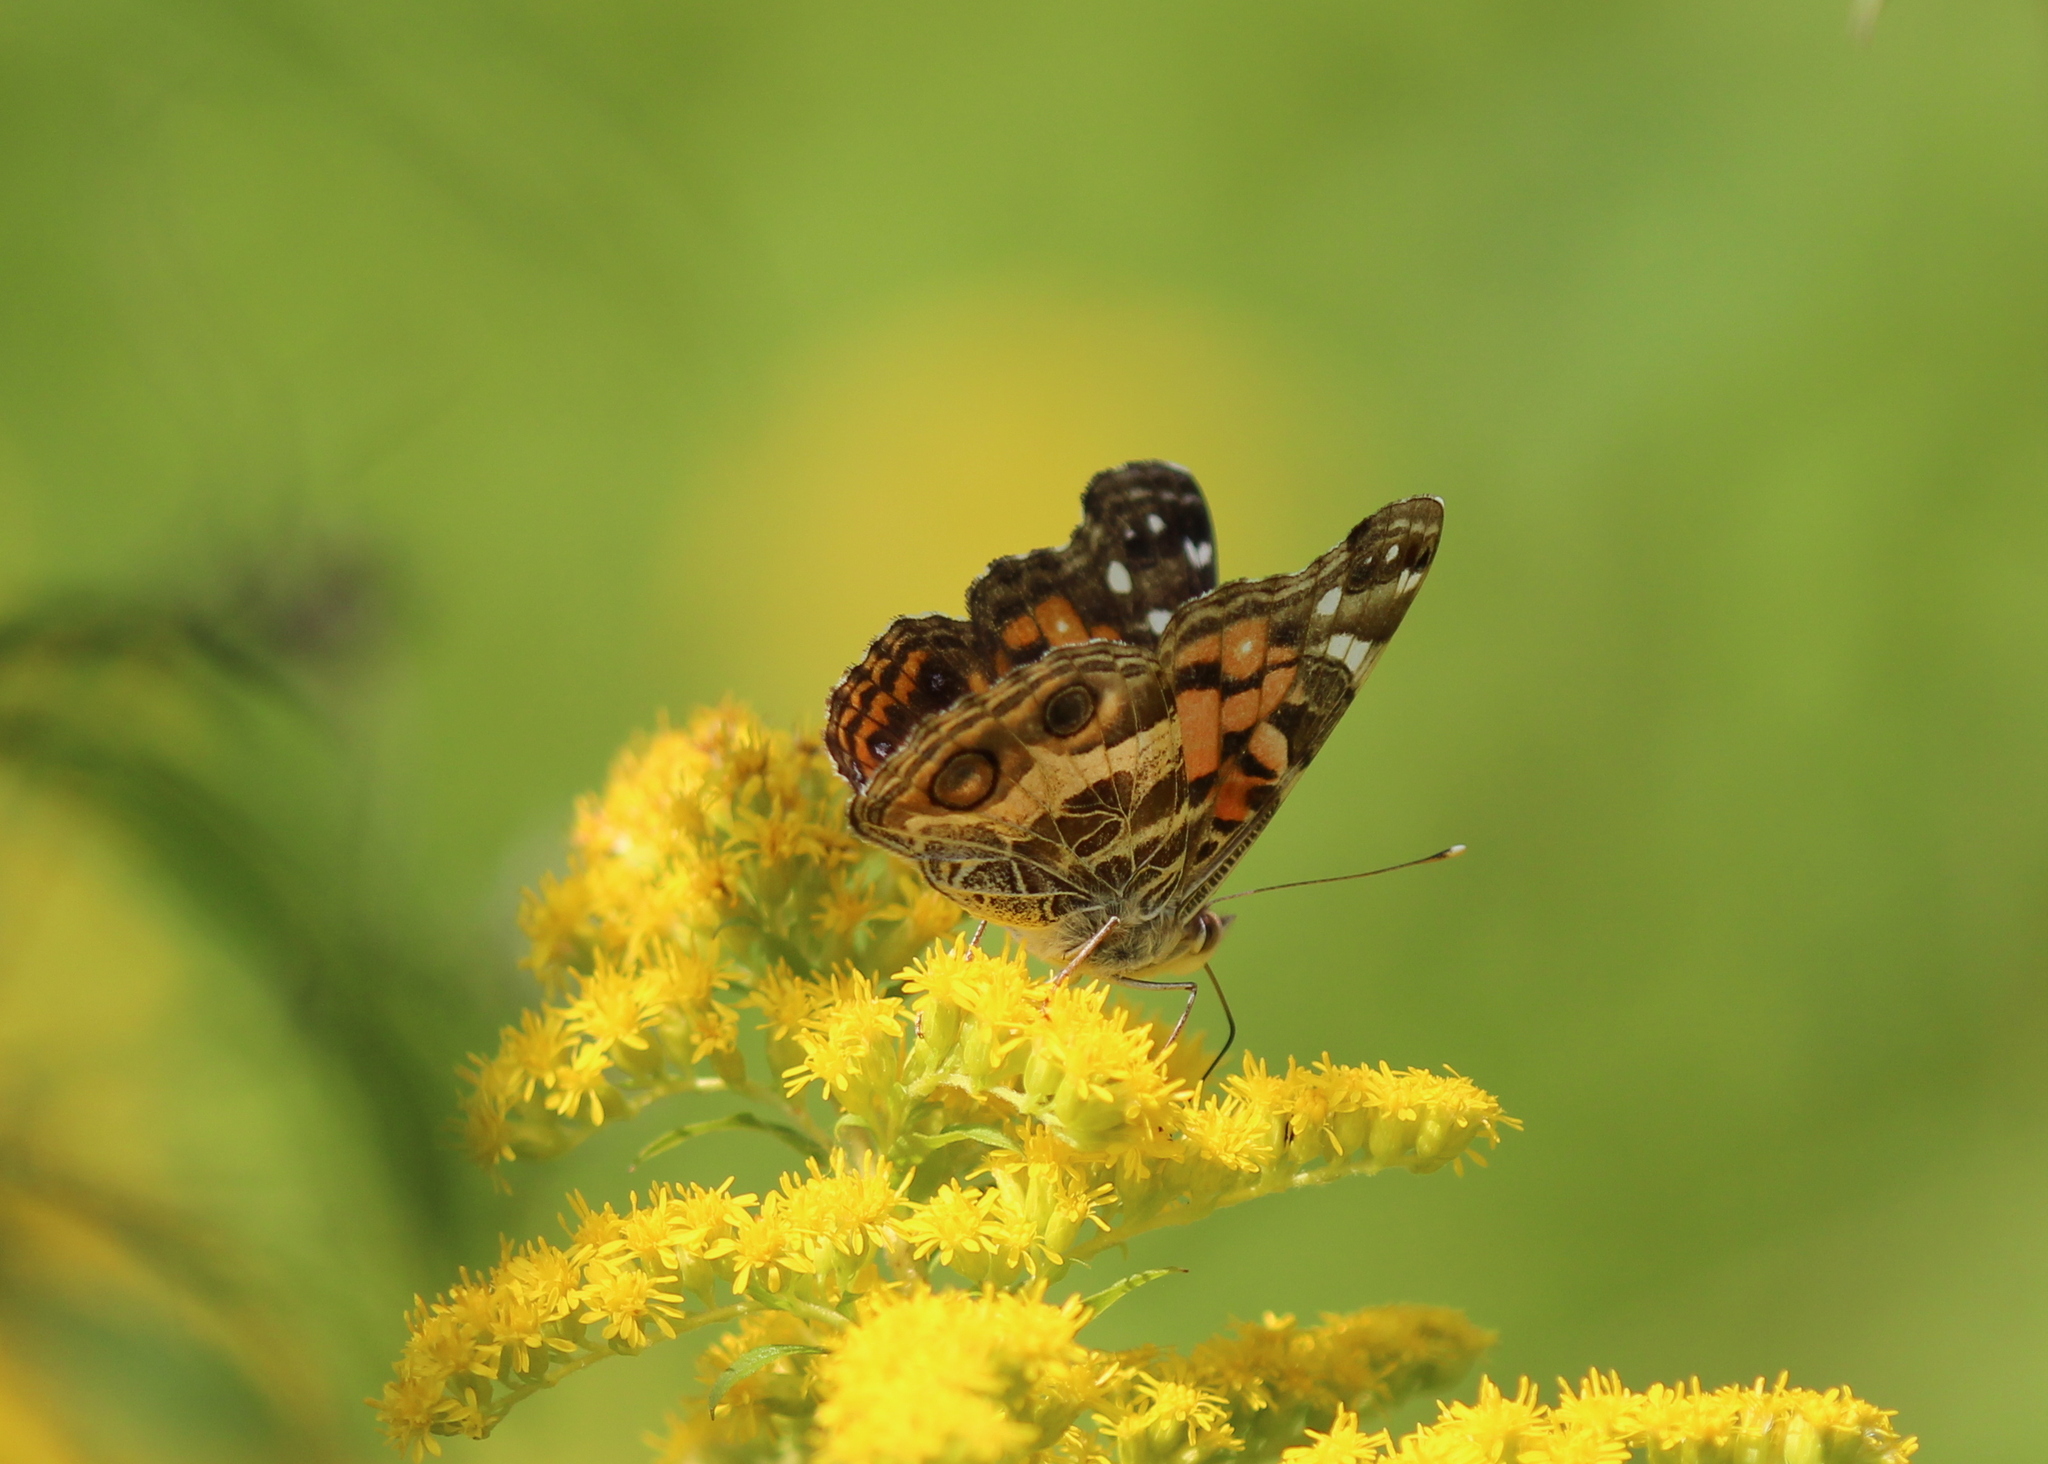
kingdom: Animalia
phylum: Arthropoda
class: Insecta
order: Lepidoptera
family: Nymphalidae
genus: Vanessa
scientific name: Vanessa virginiensis
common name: American lady
